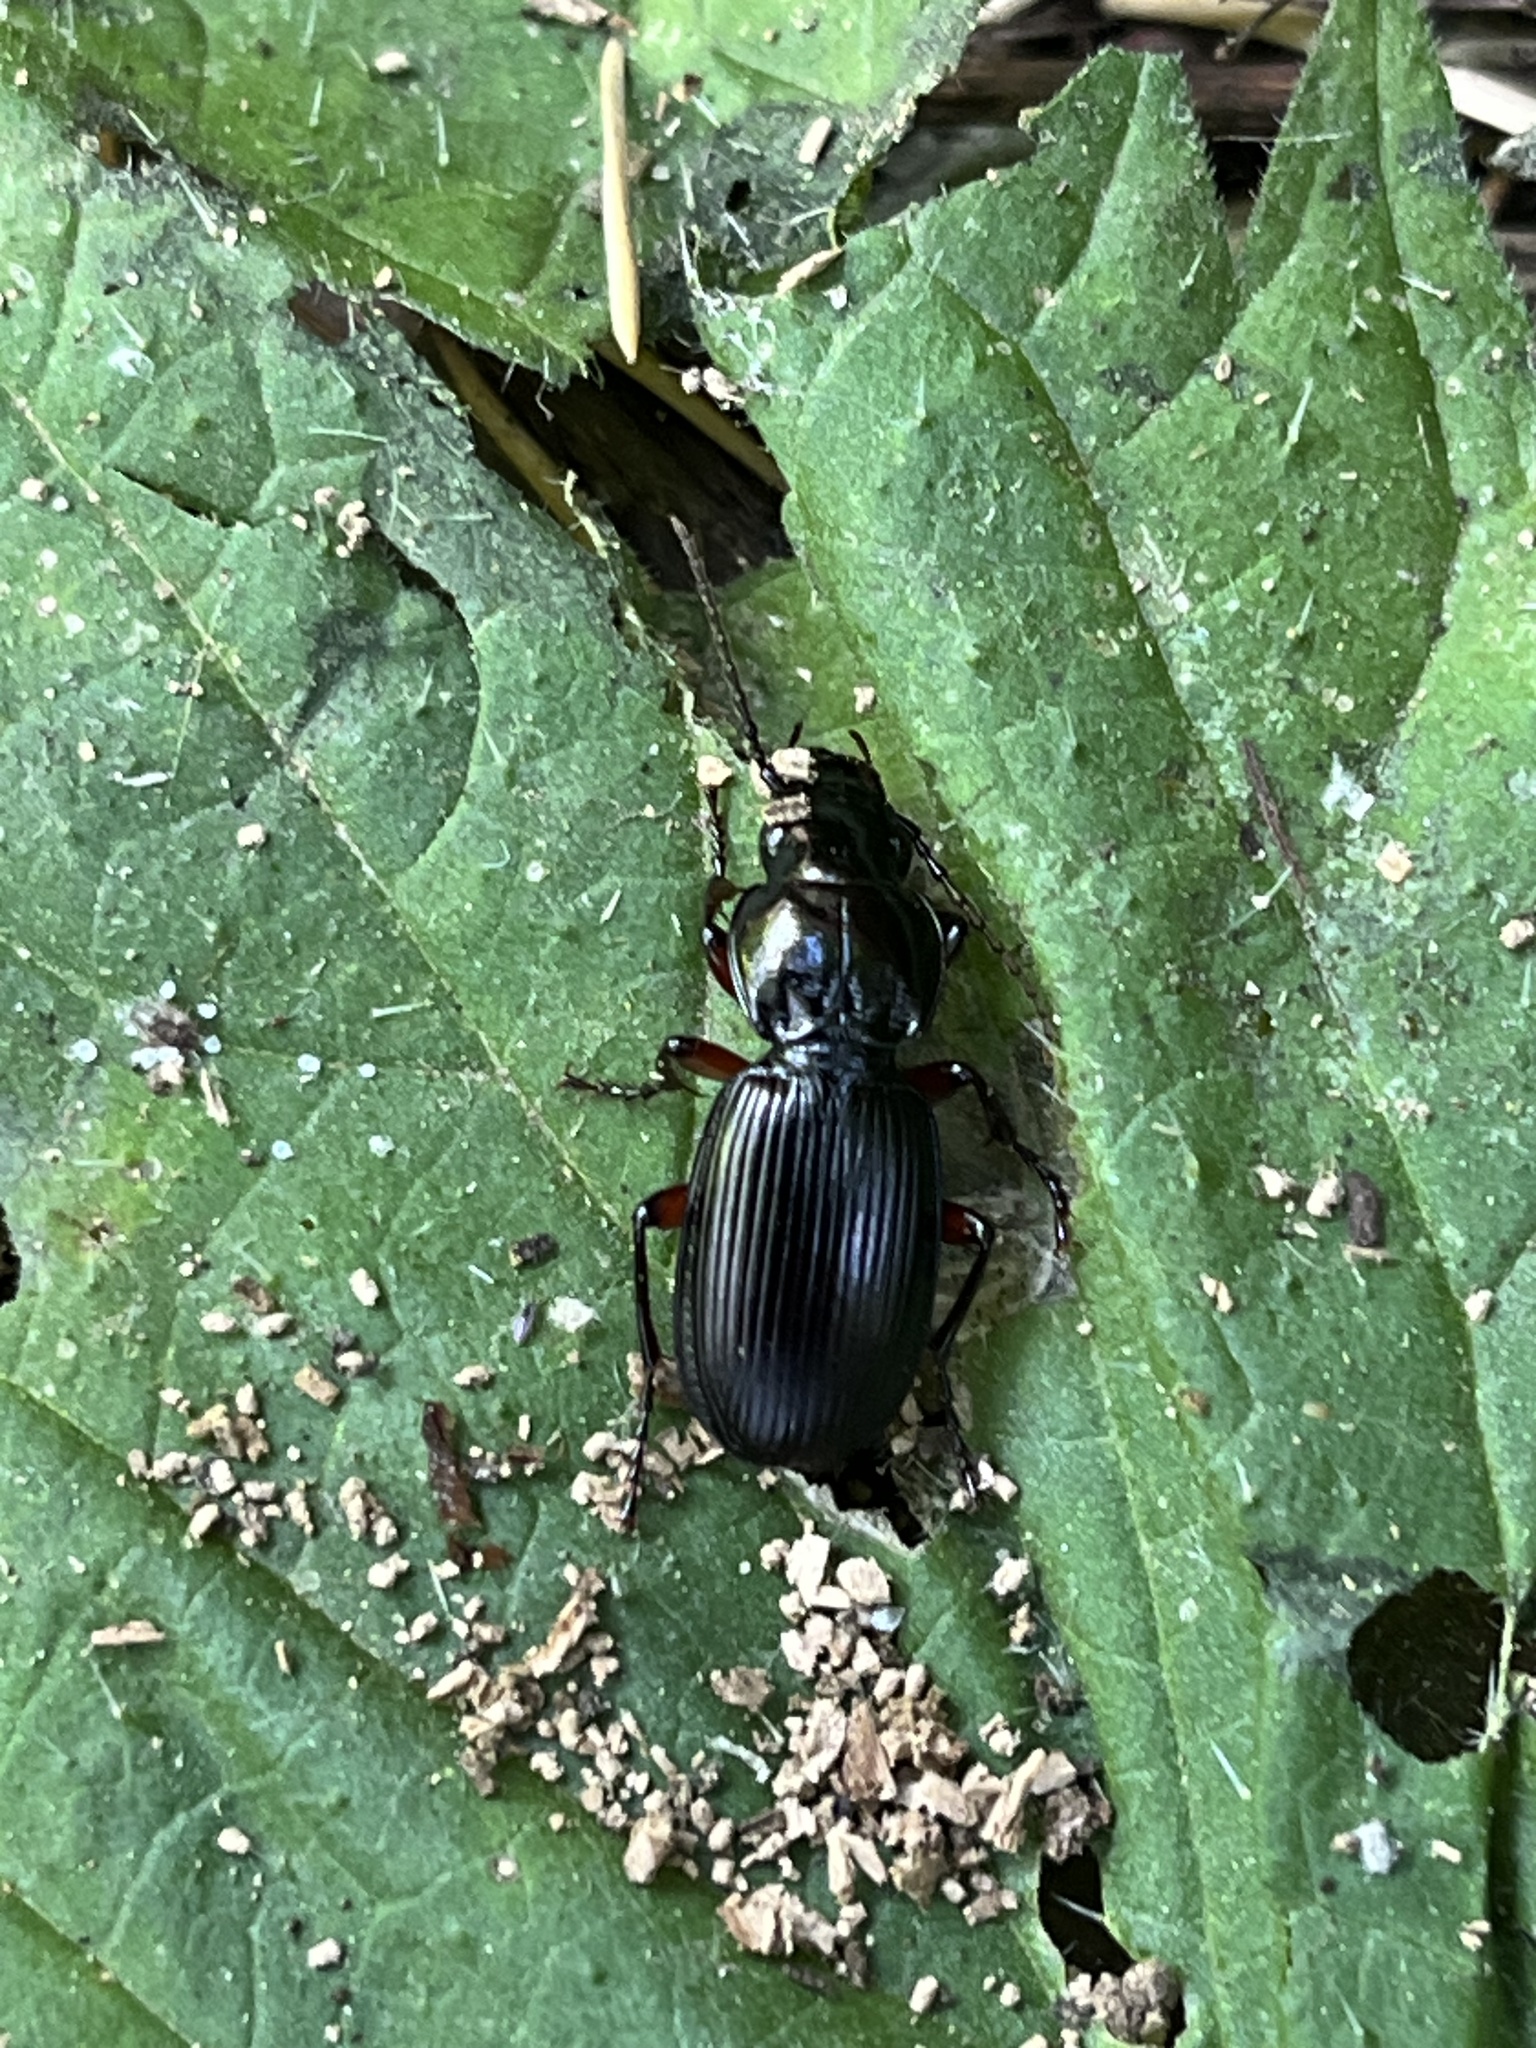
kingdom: Animalia
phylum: Arthropoda
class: Insecta
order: Coleoptera
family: Carabidae
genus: Pterostichus
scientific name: Pterostichus madidus
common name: Black clock
